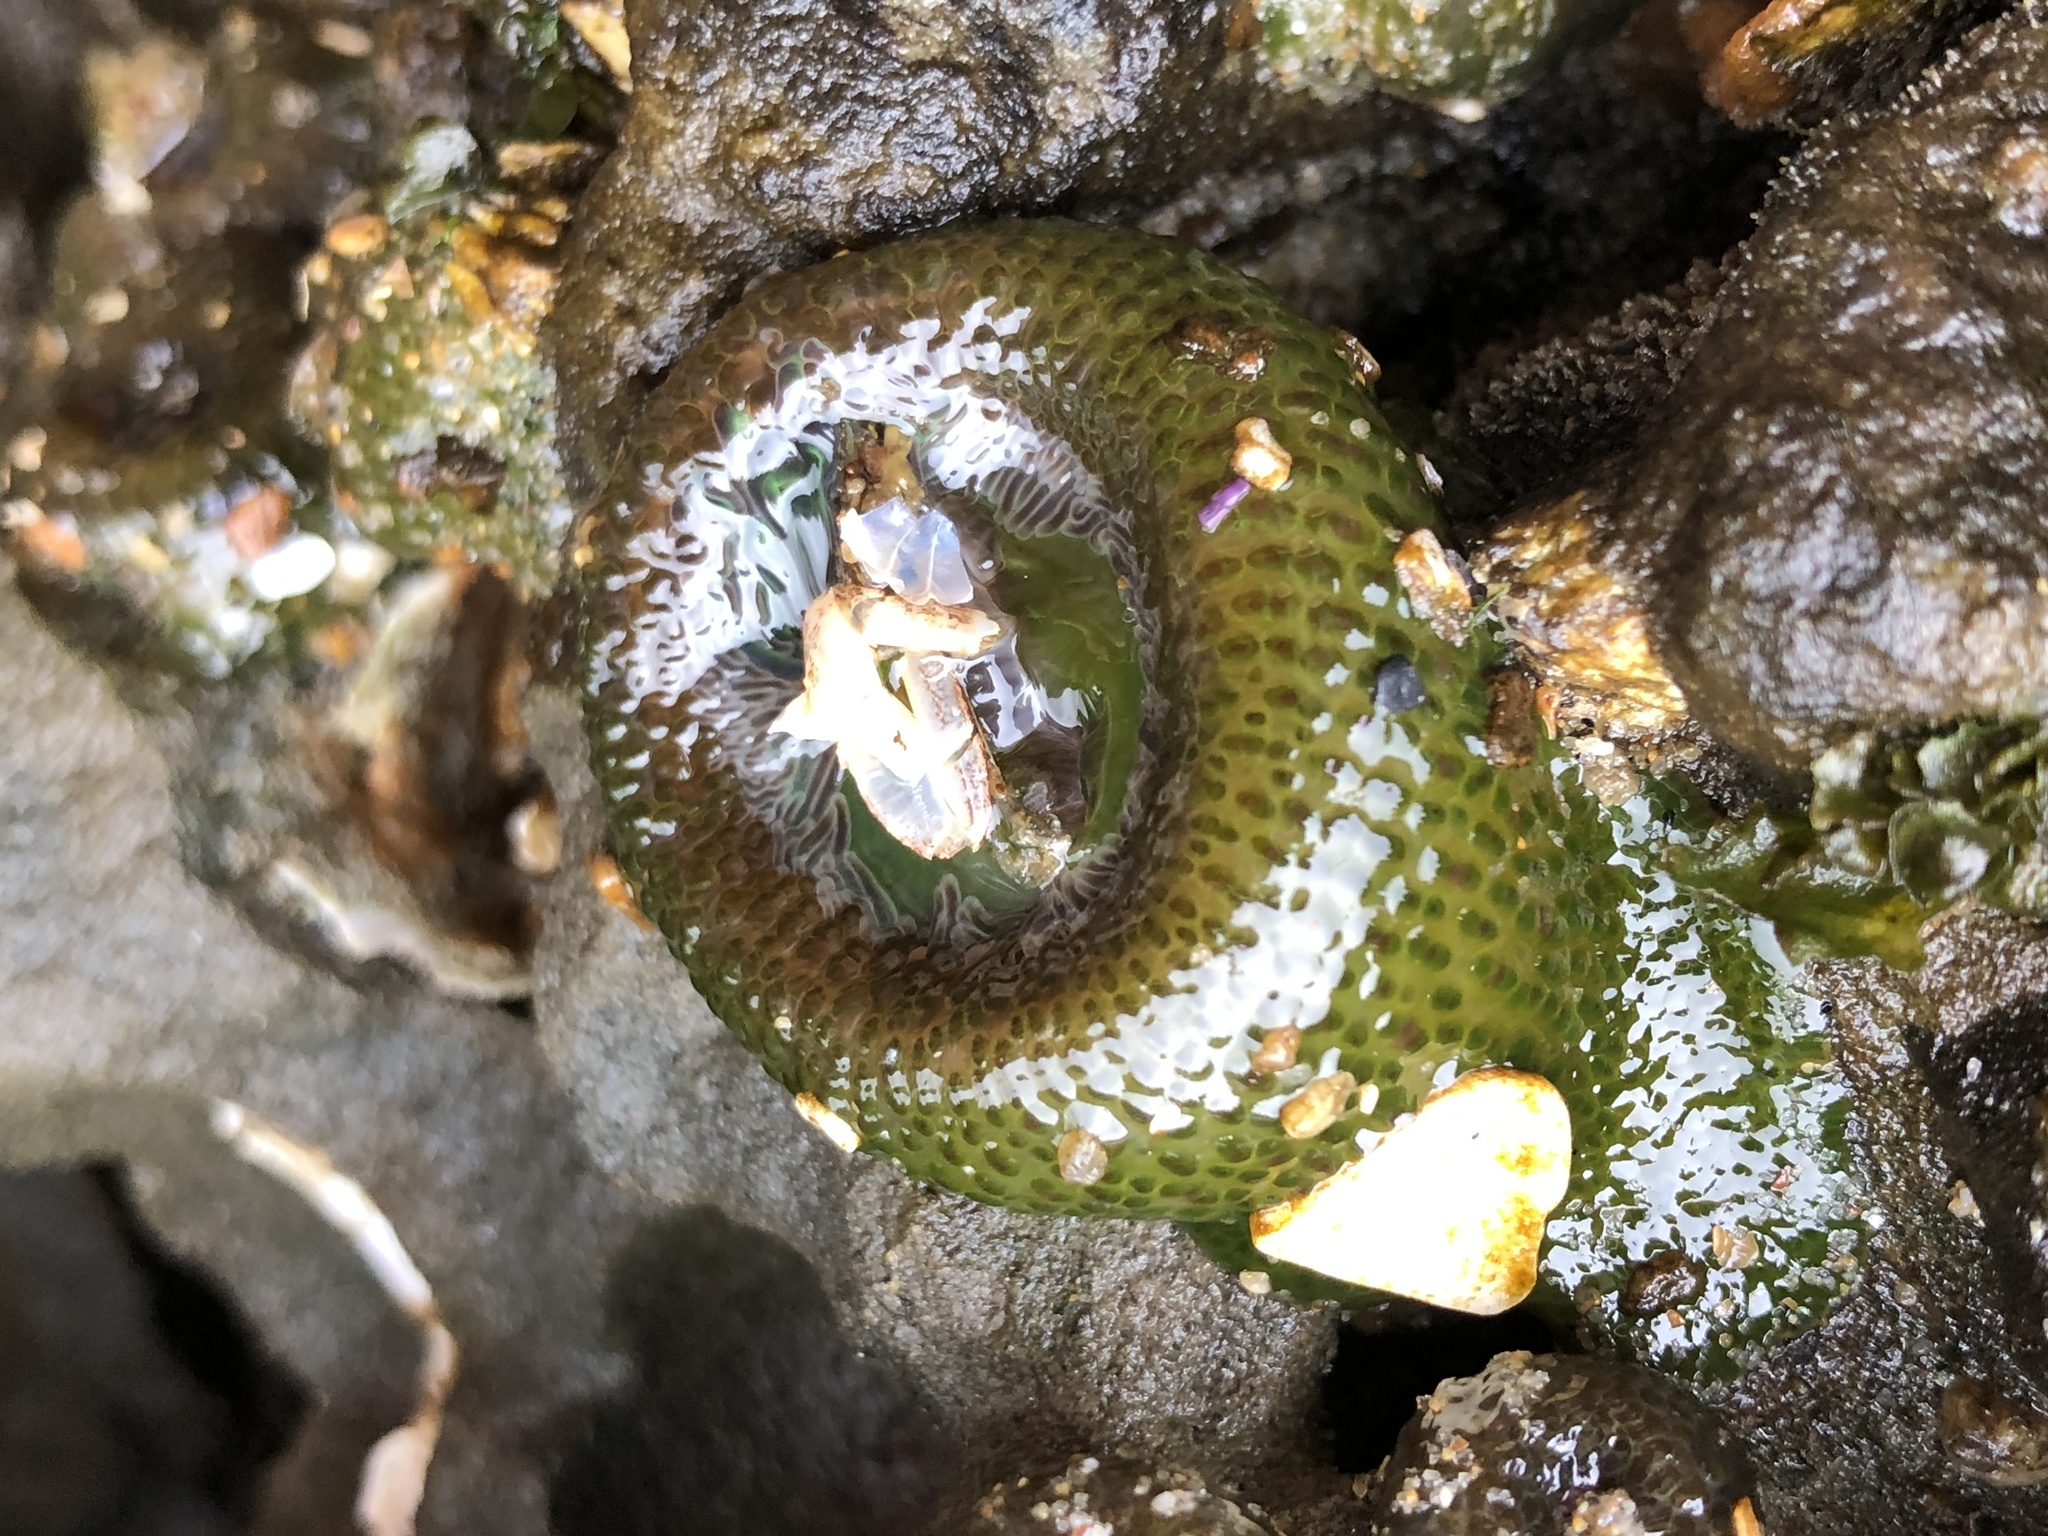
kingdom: Animalia
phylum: Cnidaria
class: Anthozoa
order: Actiniaria
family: Actiniidae
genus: Anthopleura
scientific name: Anthopleura elegantissima
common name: Clonal anemone
